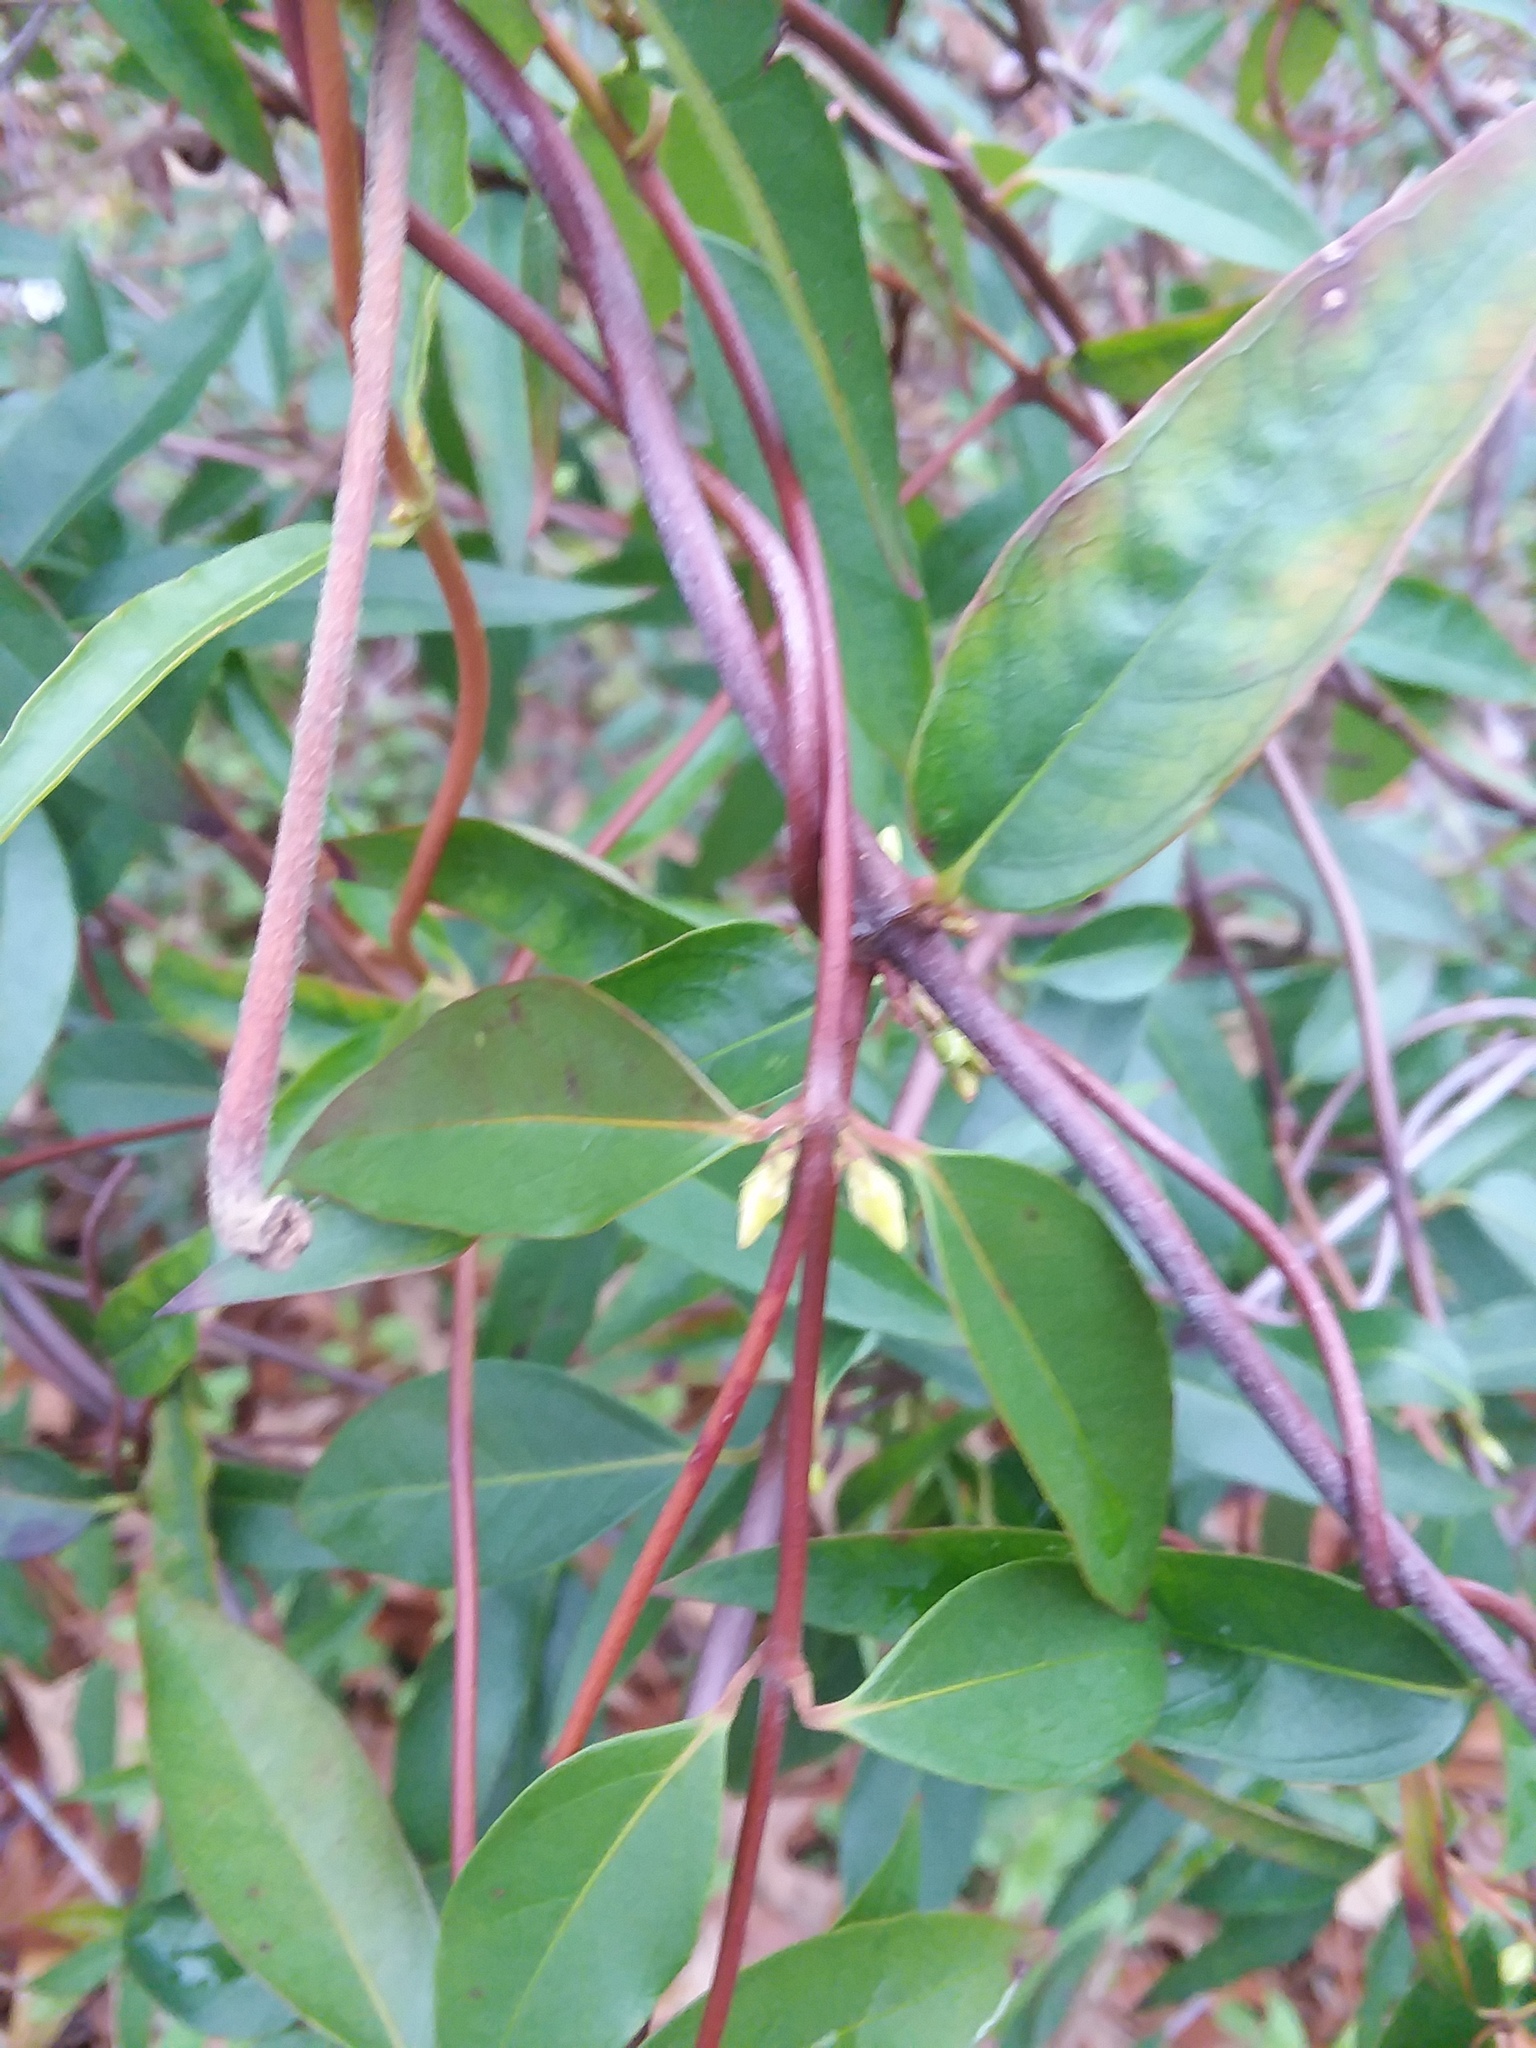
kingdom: Plantae
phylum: Tracheophyta
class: Magnoliopsida
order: Gentianales
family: Gelsemiaceae
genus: Gelsemium
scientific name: Gelsemium sempervirens
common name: Carolina-jasmine
